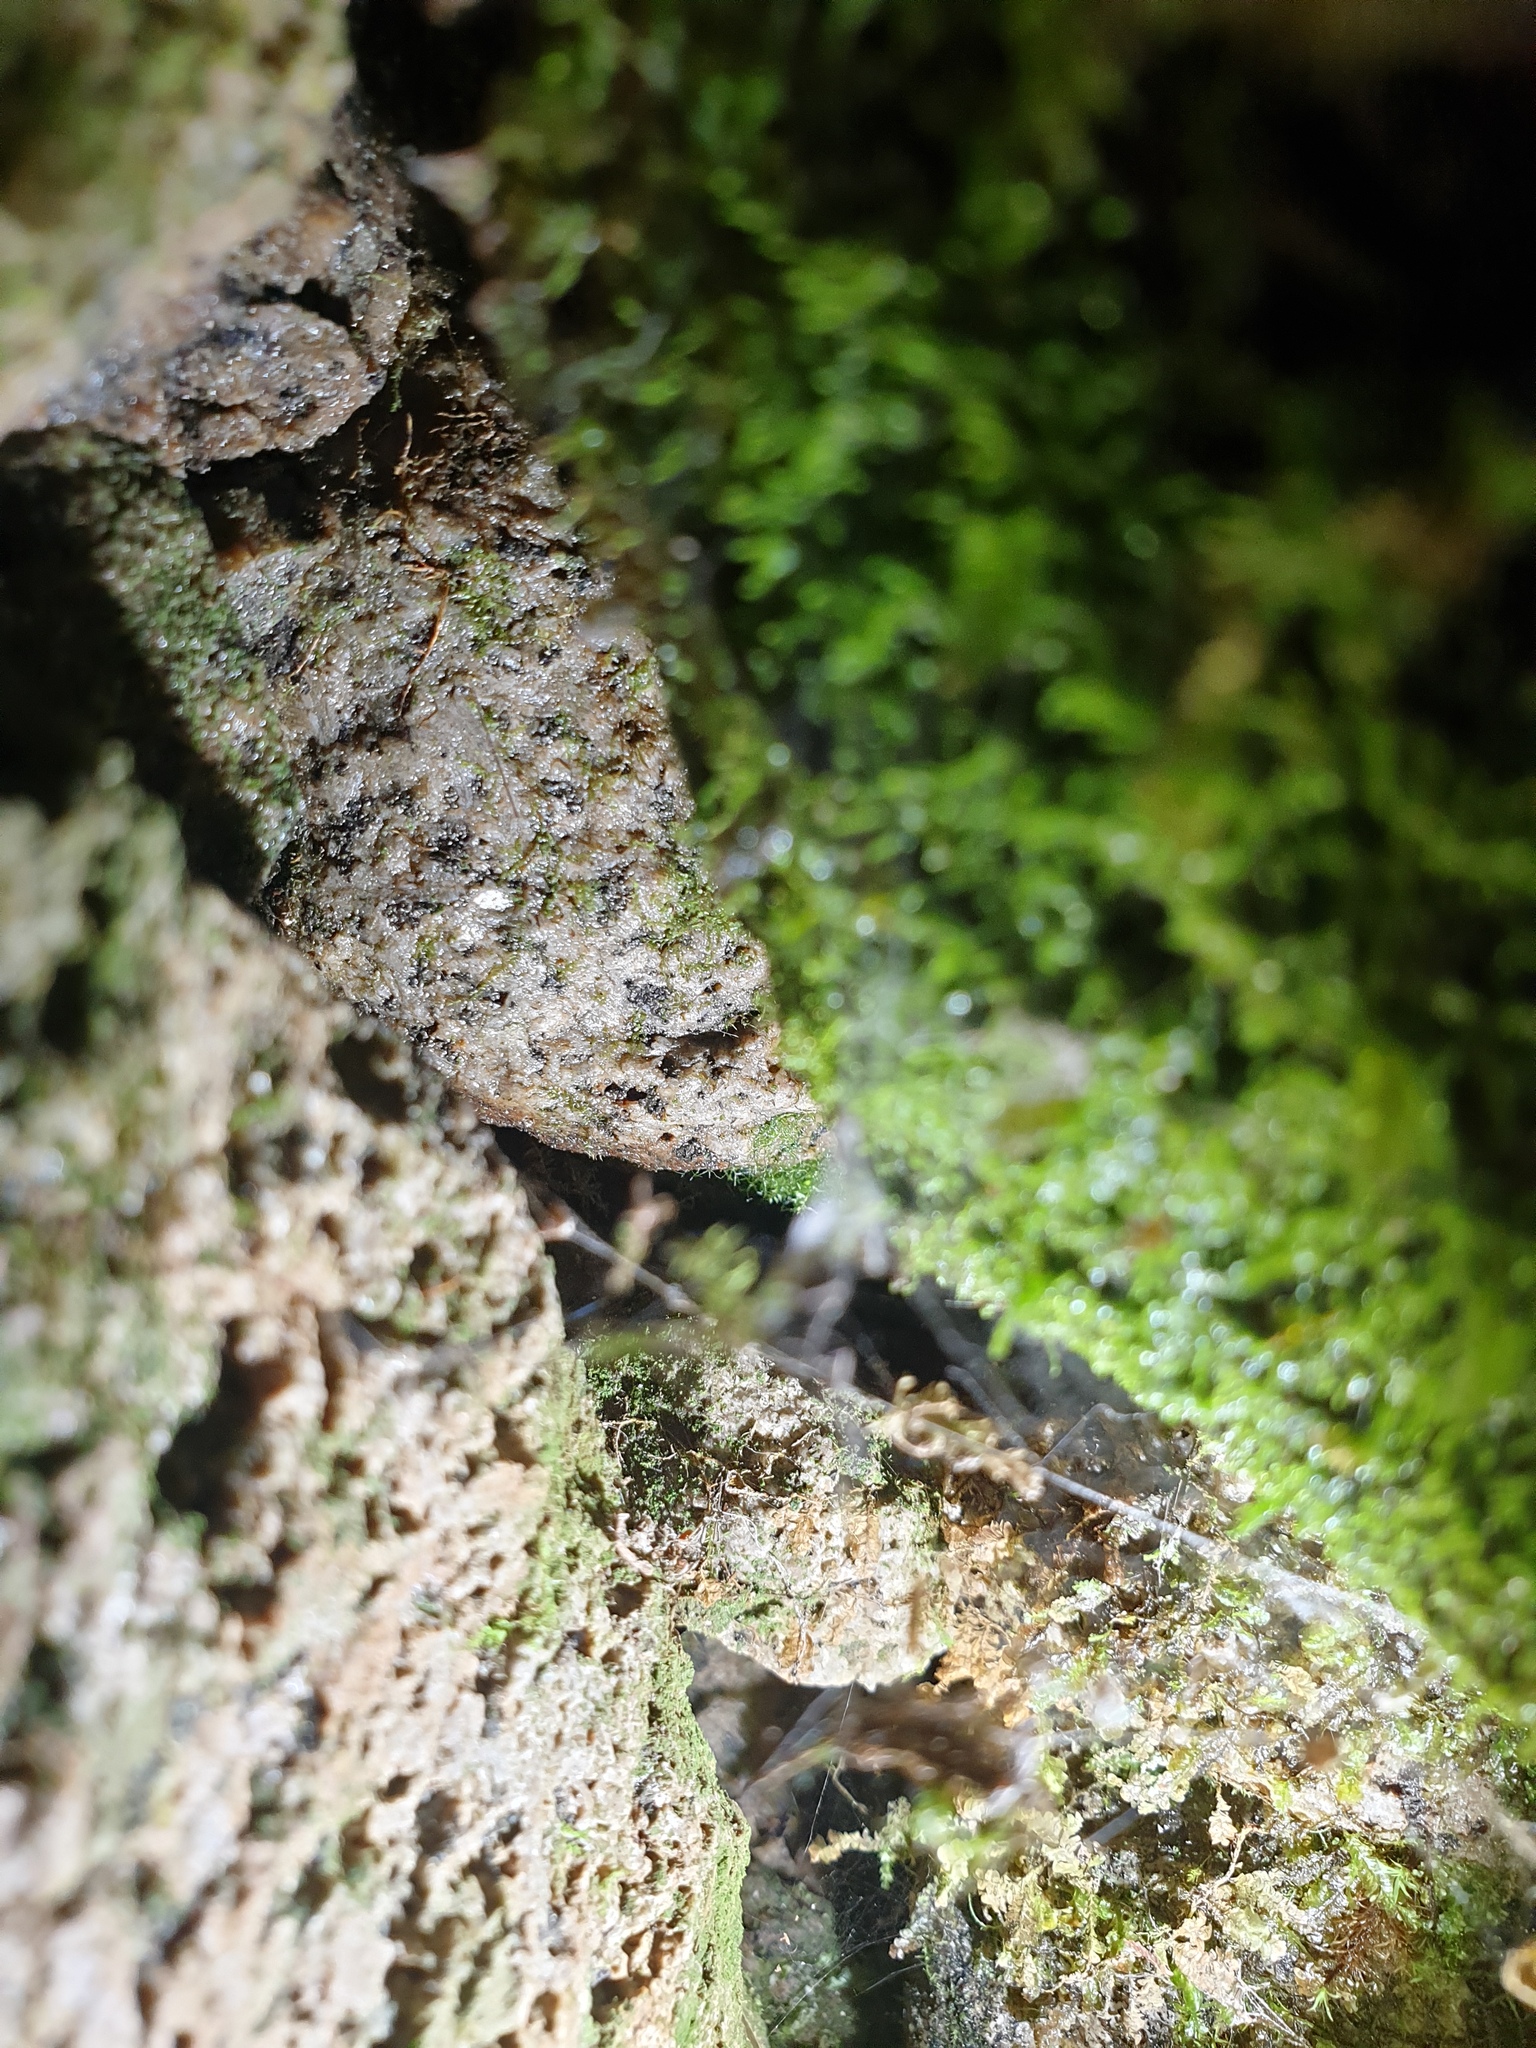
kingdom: Plantae
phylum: Tracheophyta
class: Polypodiopsida
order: Hymenophyllales
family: Hymenophyllaceae
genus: Crepidomanes
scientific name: Crepidomanes intricatum
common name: Weft fern
